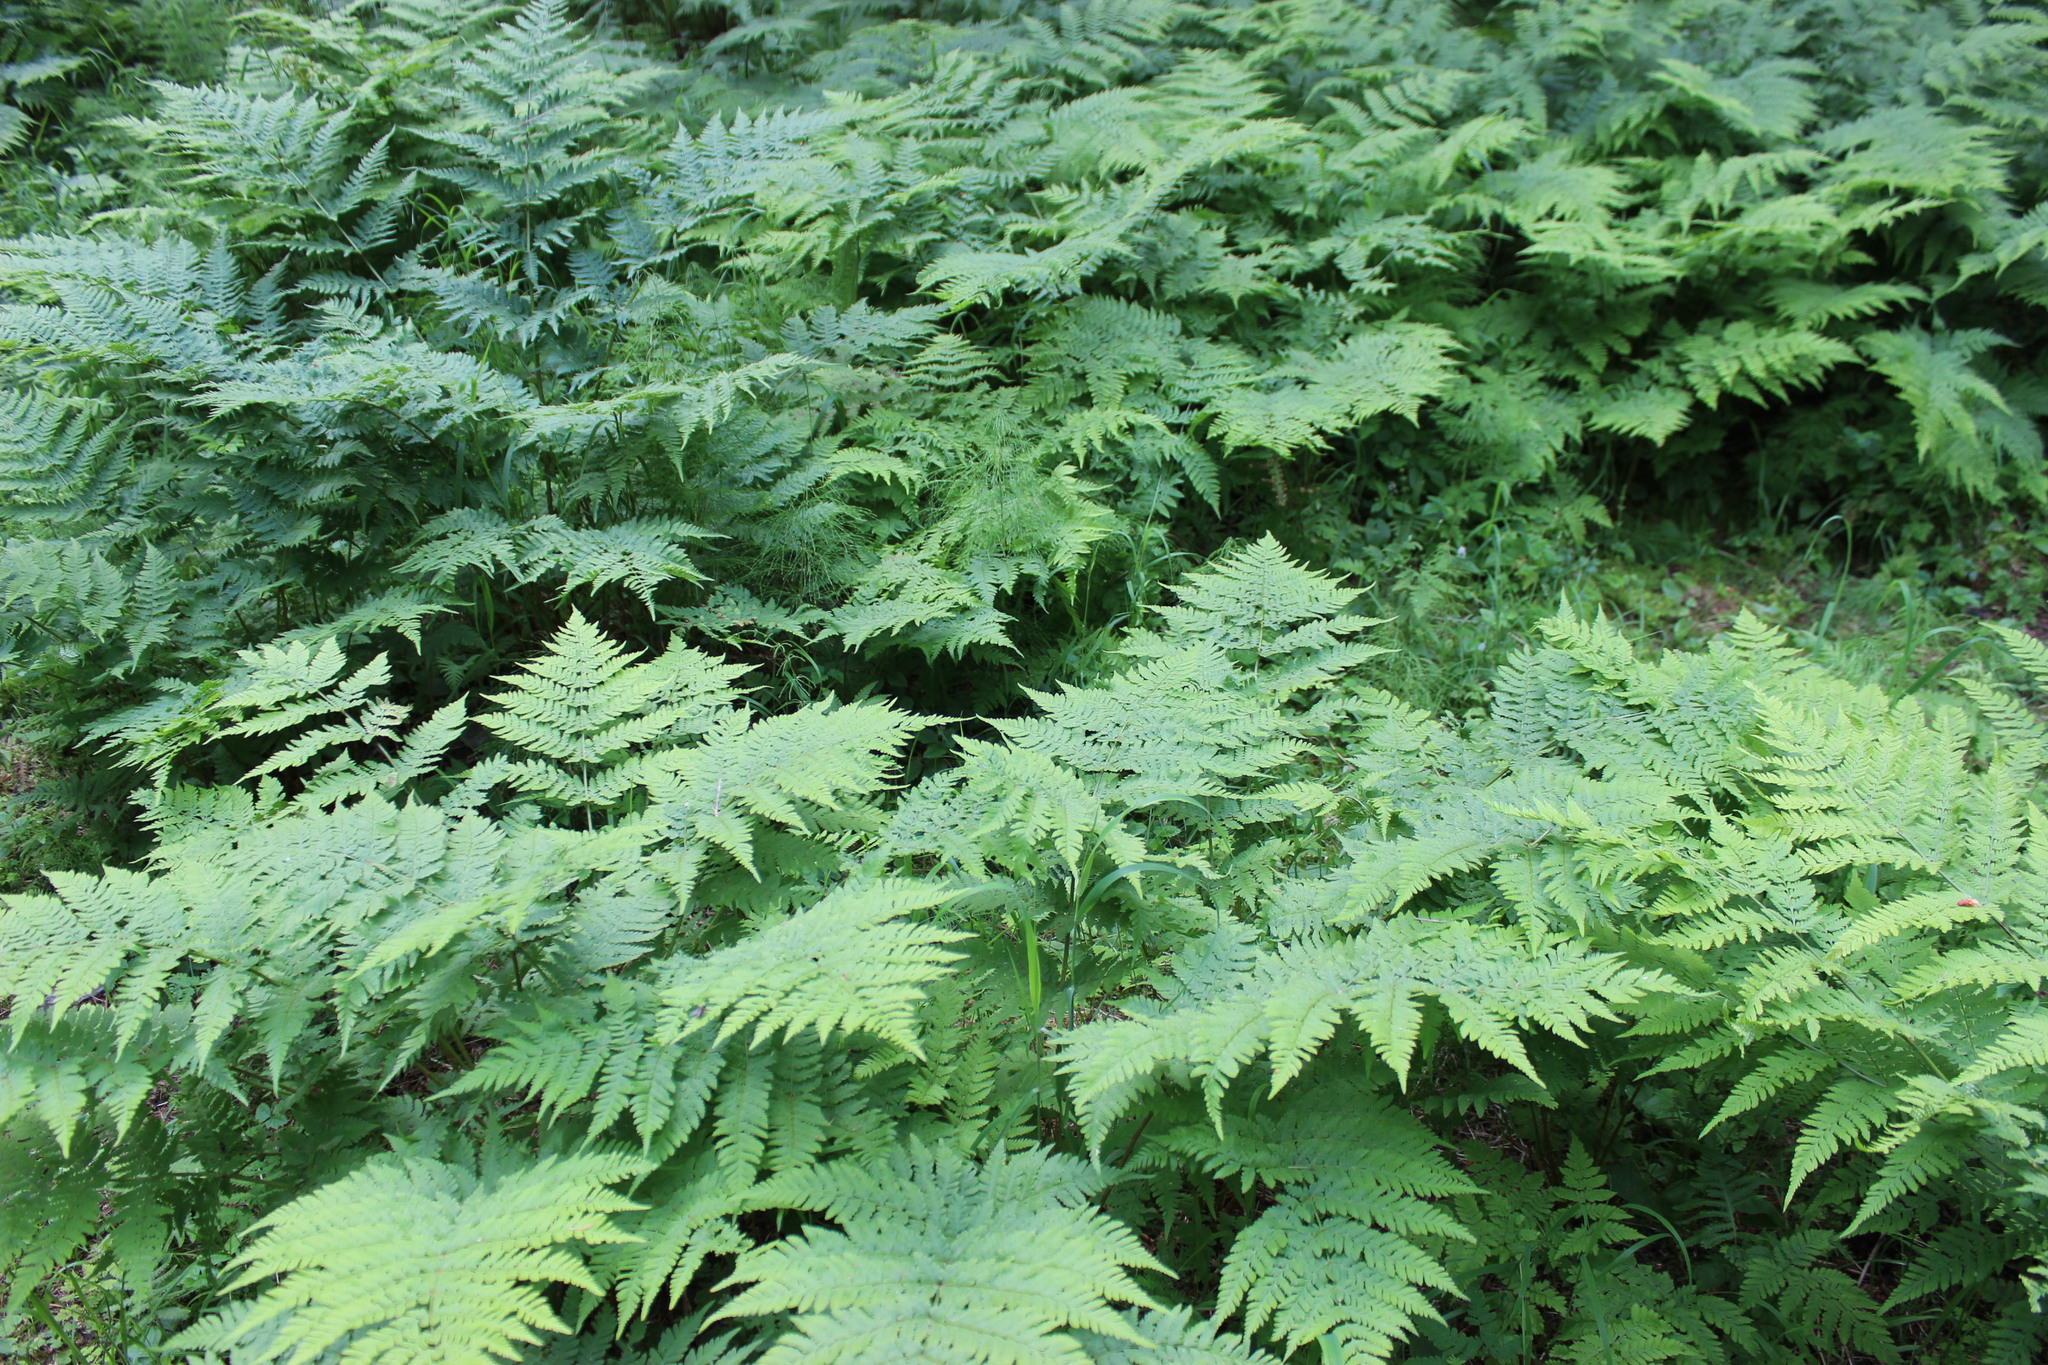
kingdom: Plantae
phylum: Tracheophyta
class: Polypodiopsida
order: Polypodiales
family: Dryopteridaceae
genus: Dryopteris
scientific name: Dryopteris expansa
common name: Northern buckler fern
